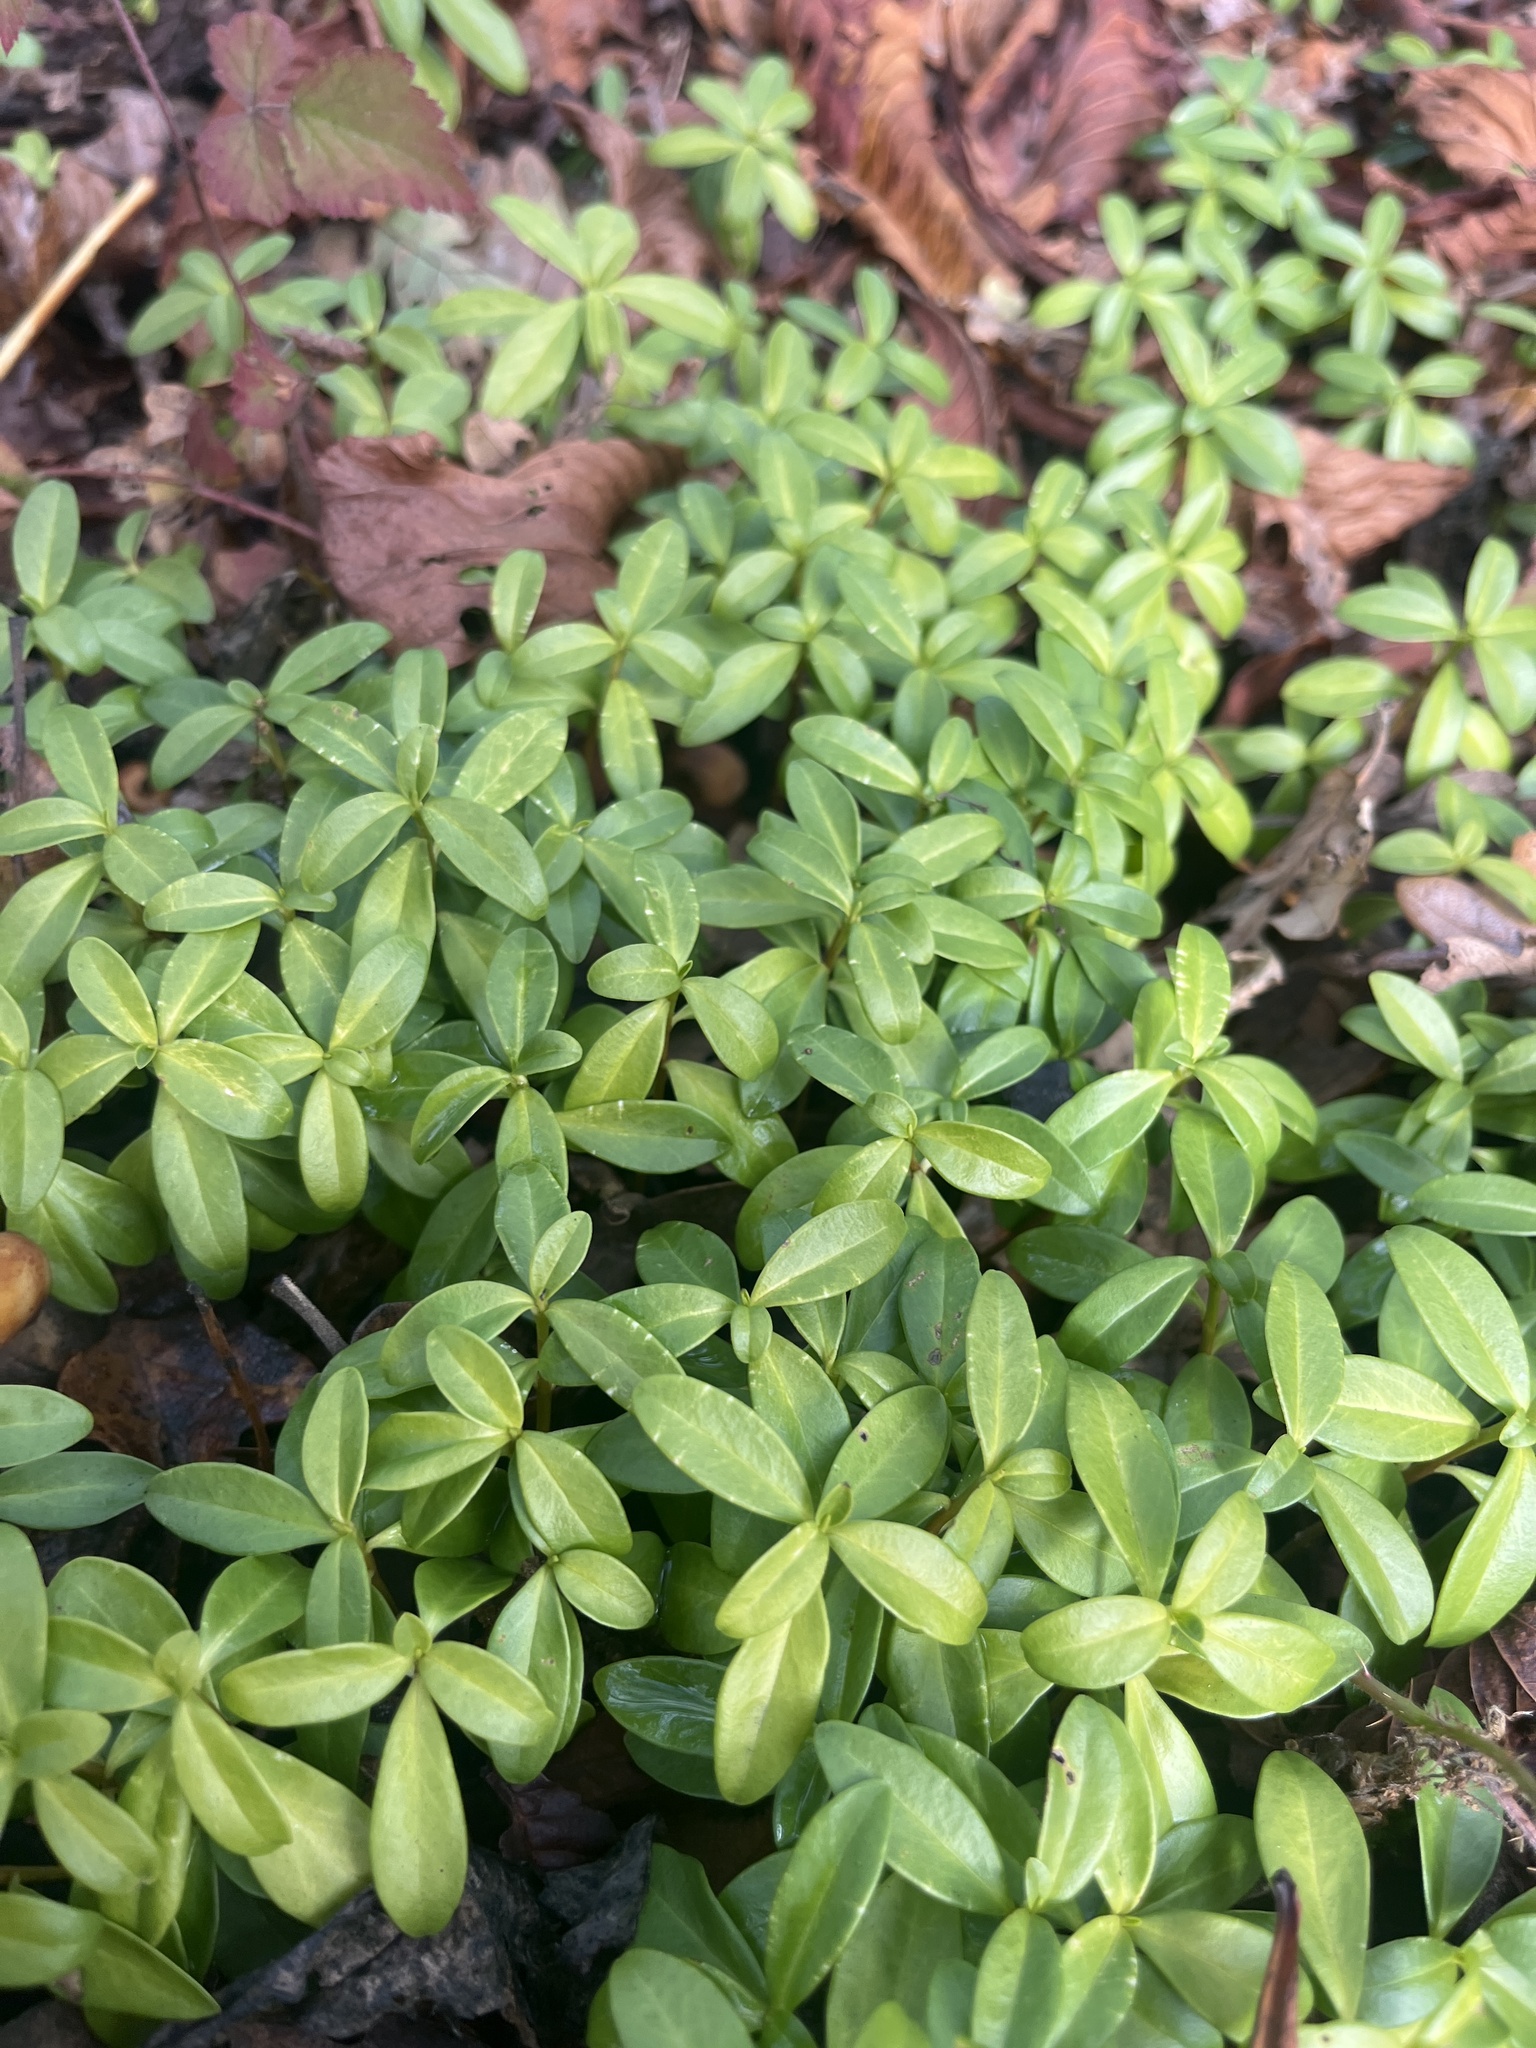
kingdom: Plantae
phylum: Tracheophyta
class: Magnoliopsida
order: Malvales
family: Thymelaeaceae
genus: Daphne
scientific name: Daphne laureola
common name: Spurge-laurel
